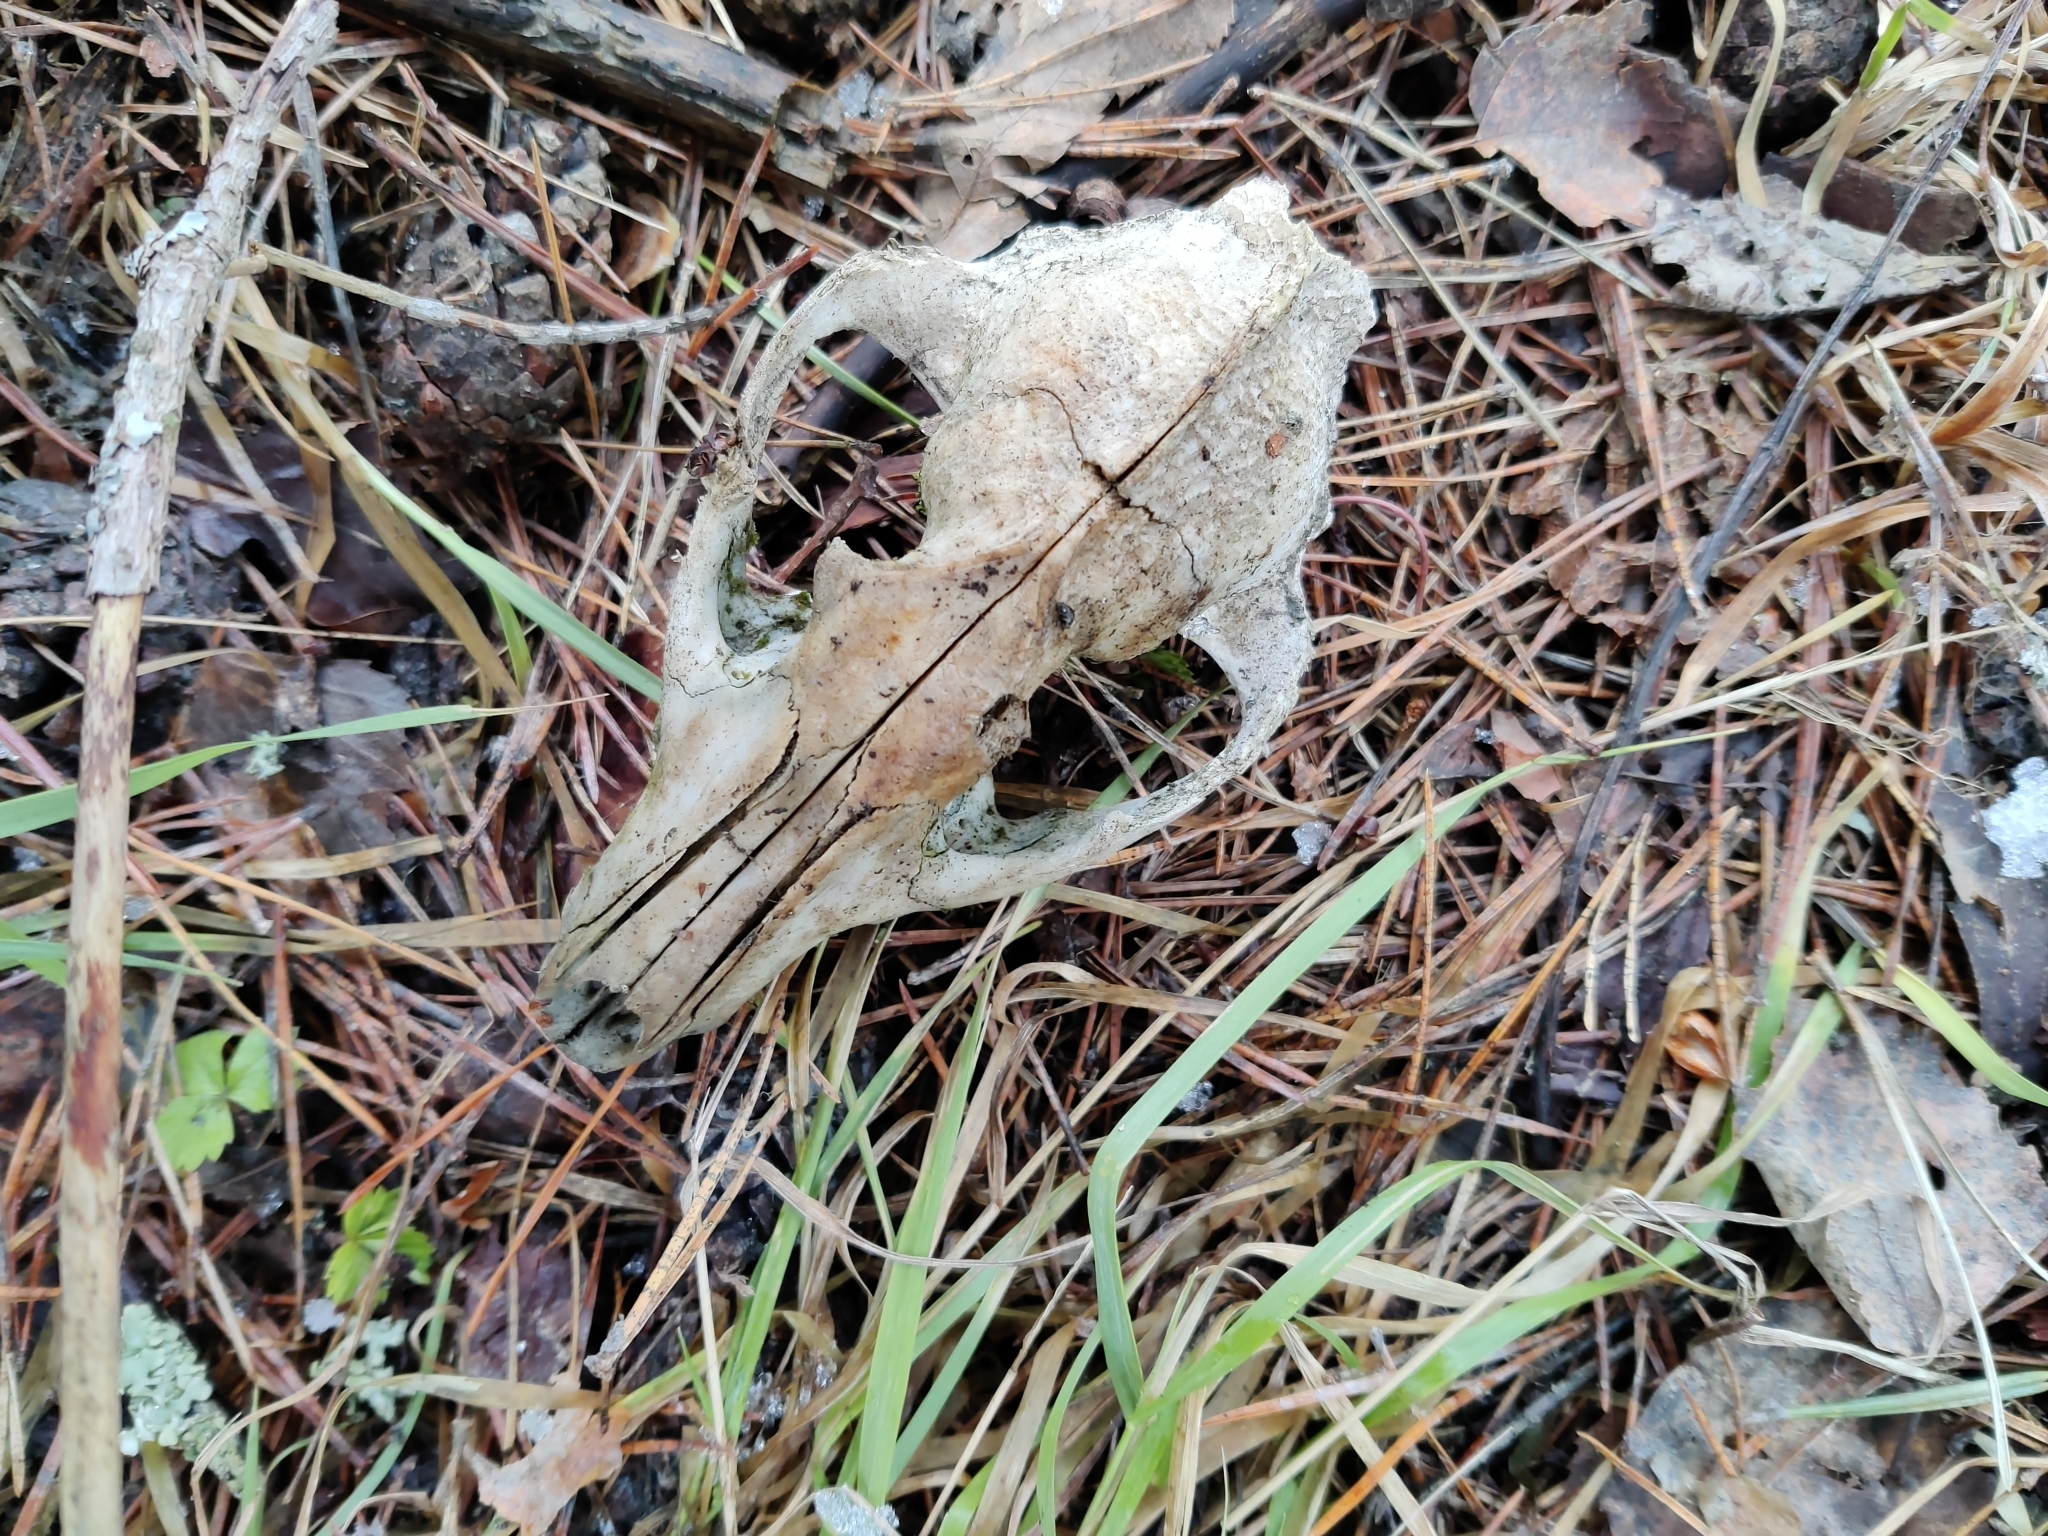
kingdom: Animalia
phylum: Chordata
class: Mammalia
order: Carnivora
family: Canidae
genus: Nyctereutes
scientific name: Nyctereutes procyonoides
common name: Raccoon dog
